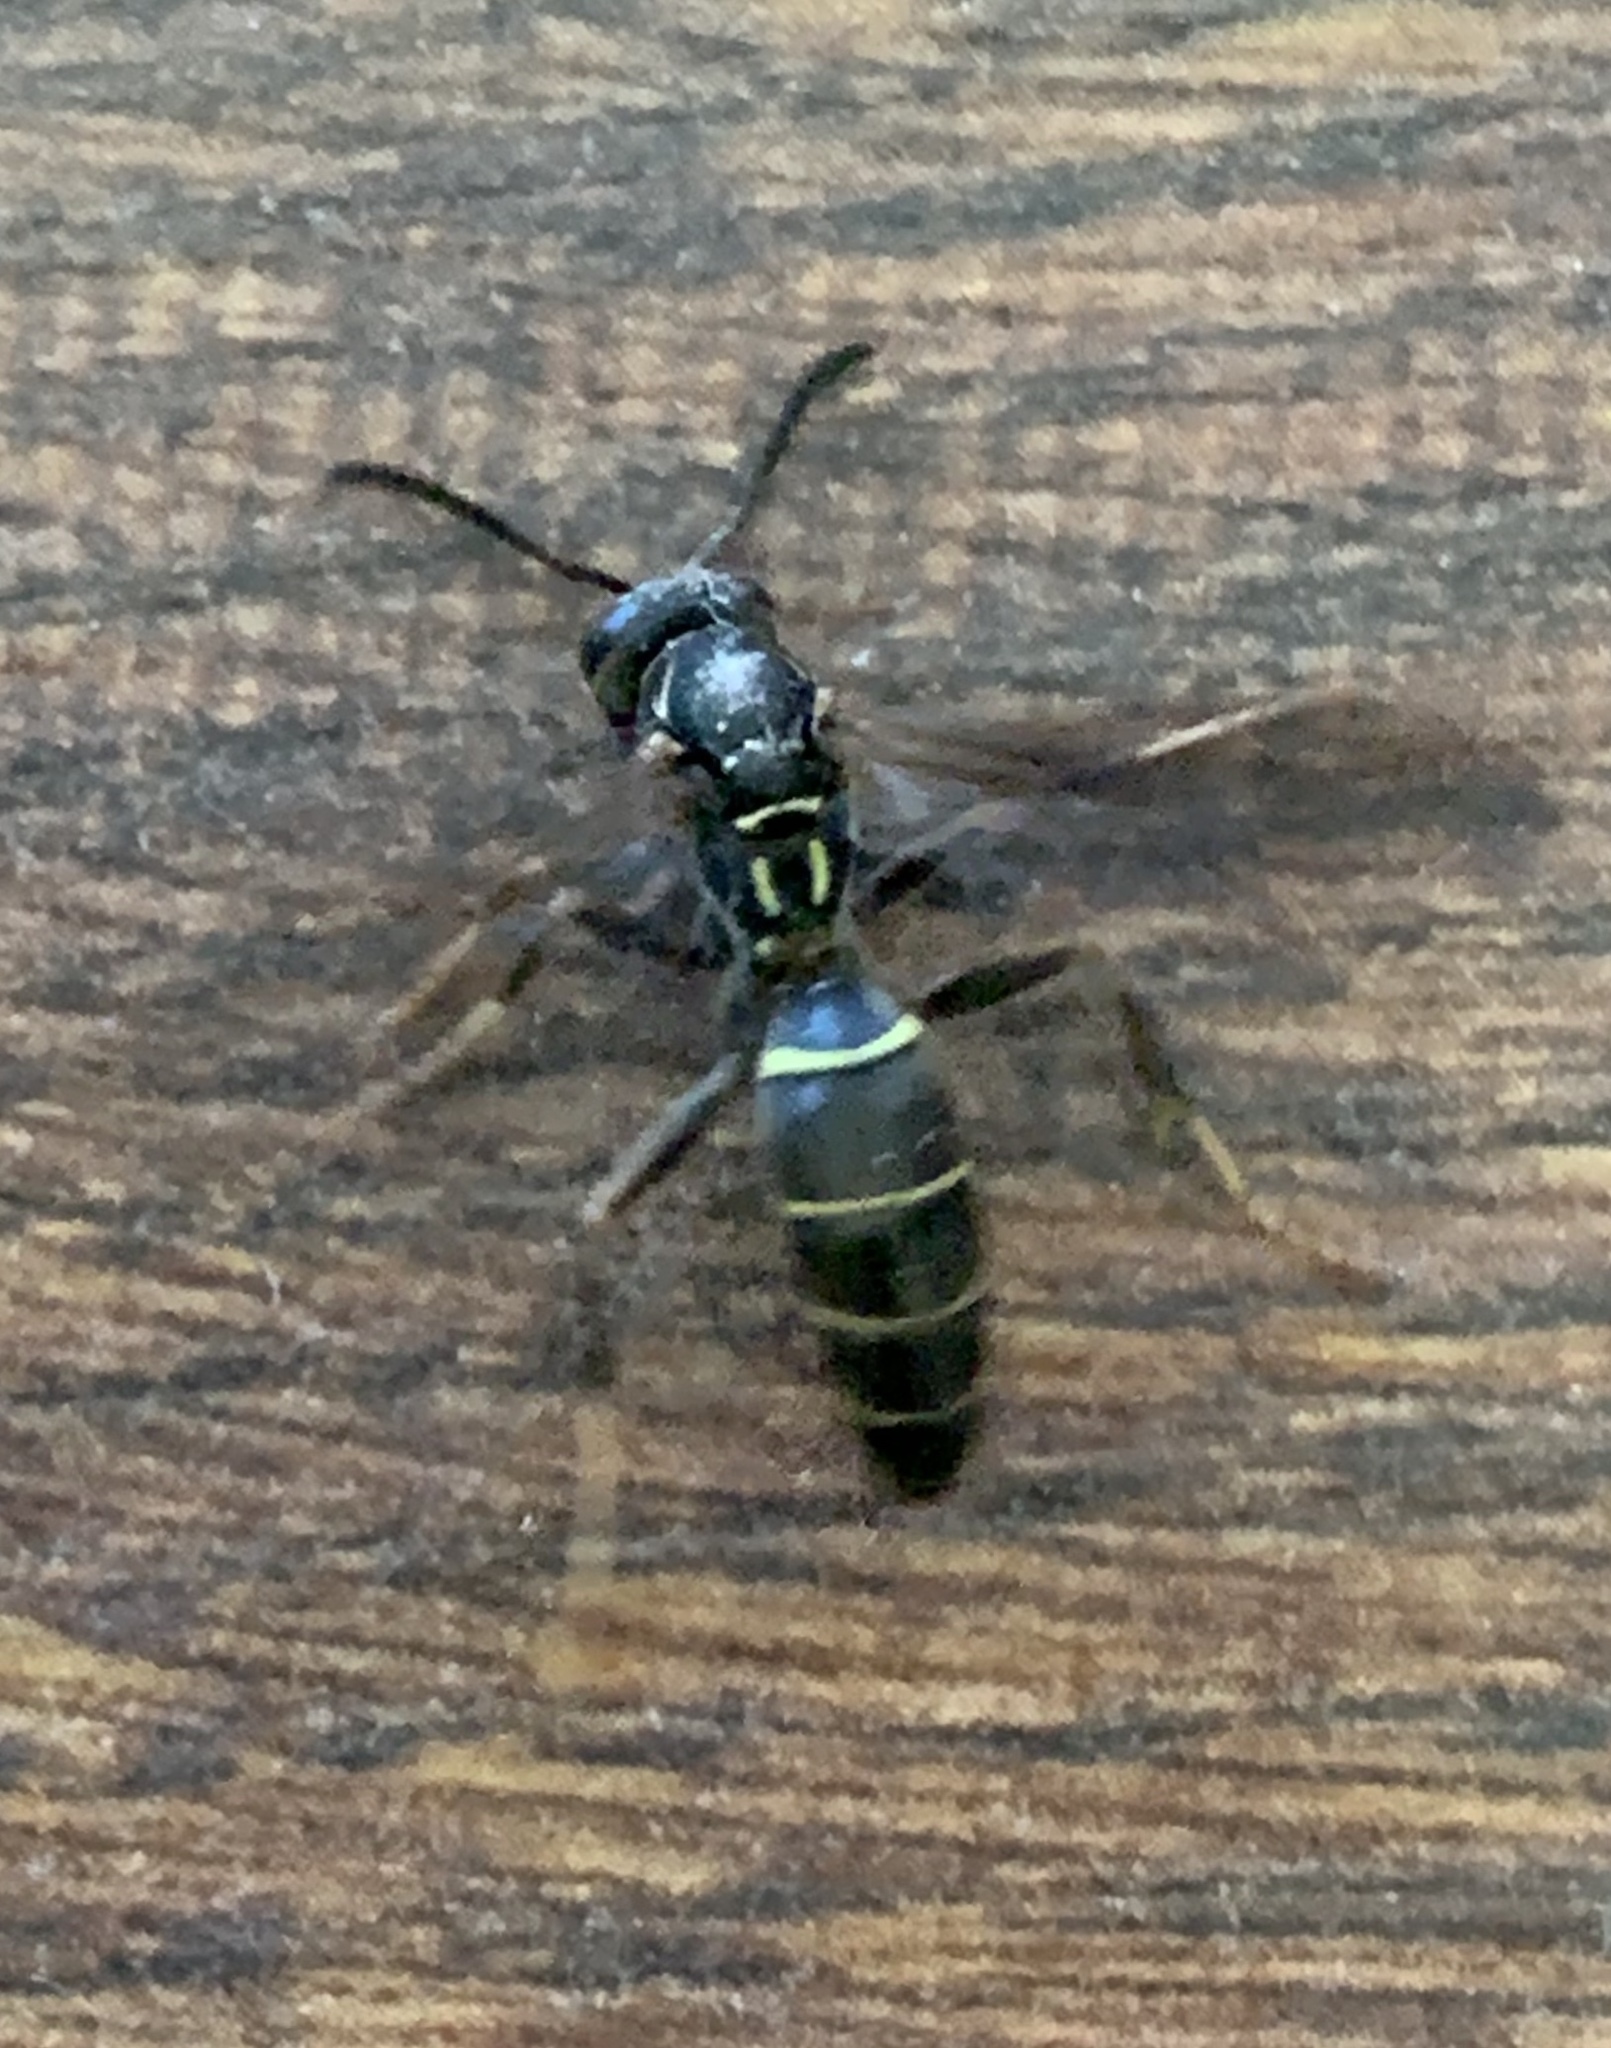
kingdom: Animalia
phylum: Arthropoda
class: Insecta
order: Hymenoptera
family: Eumenidae
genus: Polistes
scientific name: Polistes fuscatus
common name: Dark paper wasp
